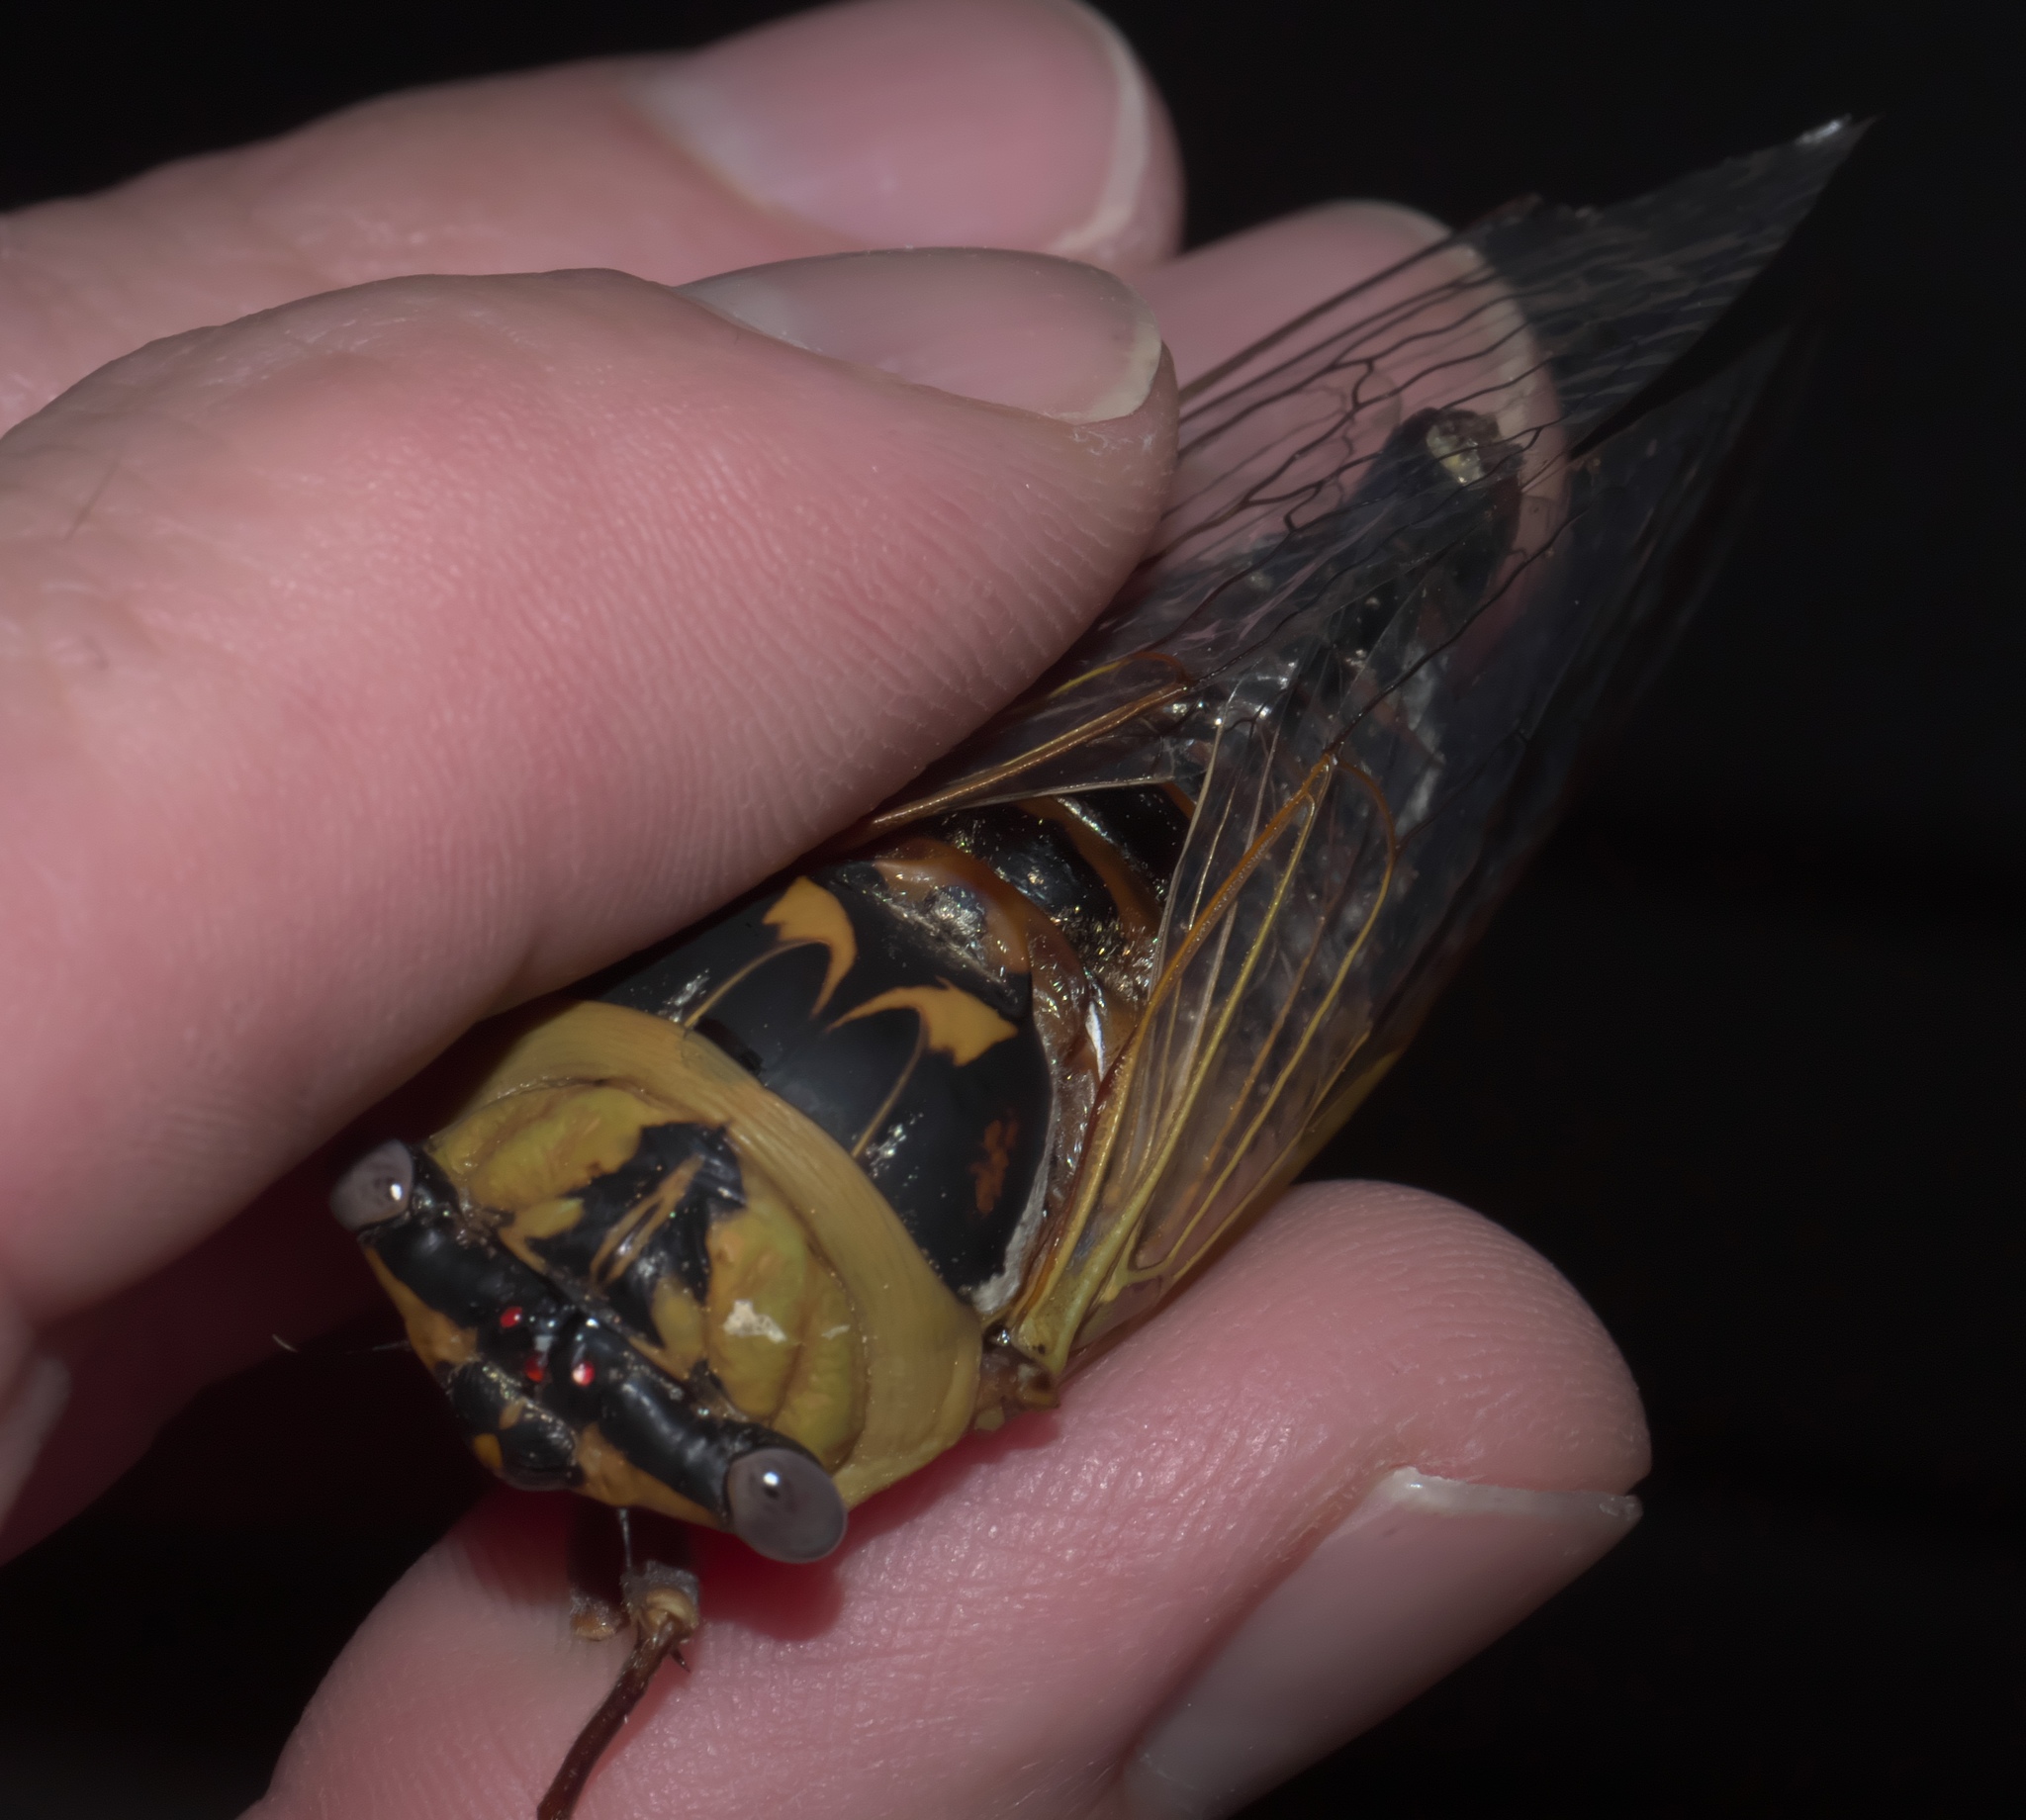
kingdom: Animalia
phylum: Arthropoda
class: Insecta
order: Hemiptera
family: Cicadidae
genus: Megatibicen
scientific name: Megatibicen pronotalis
